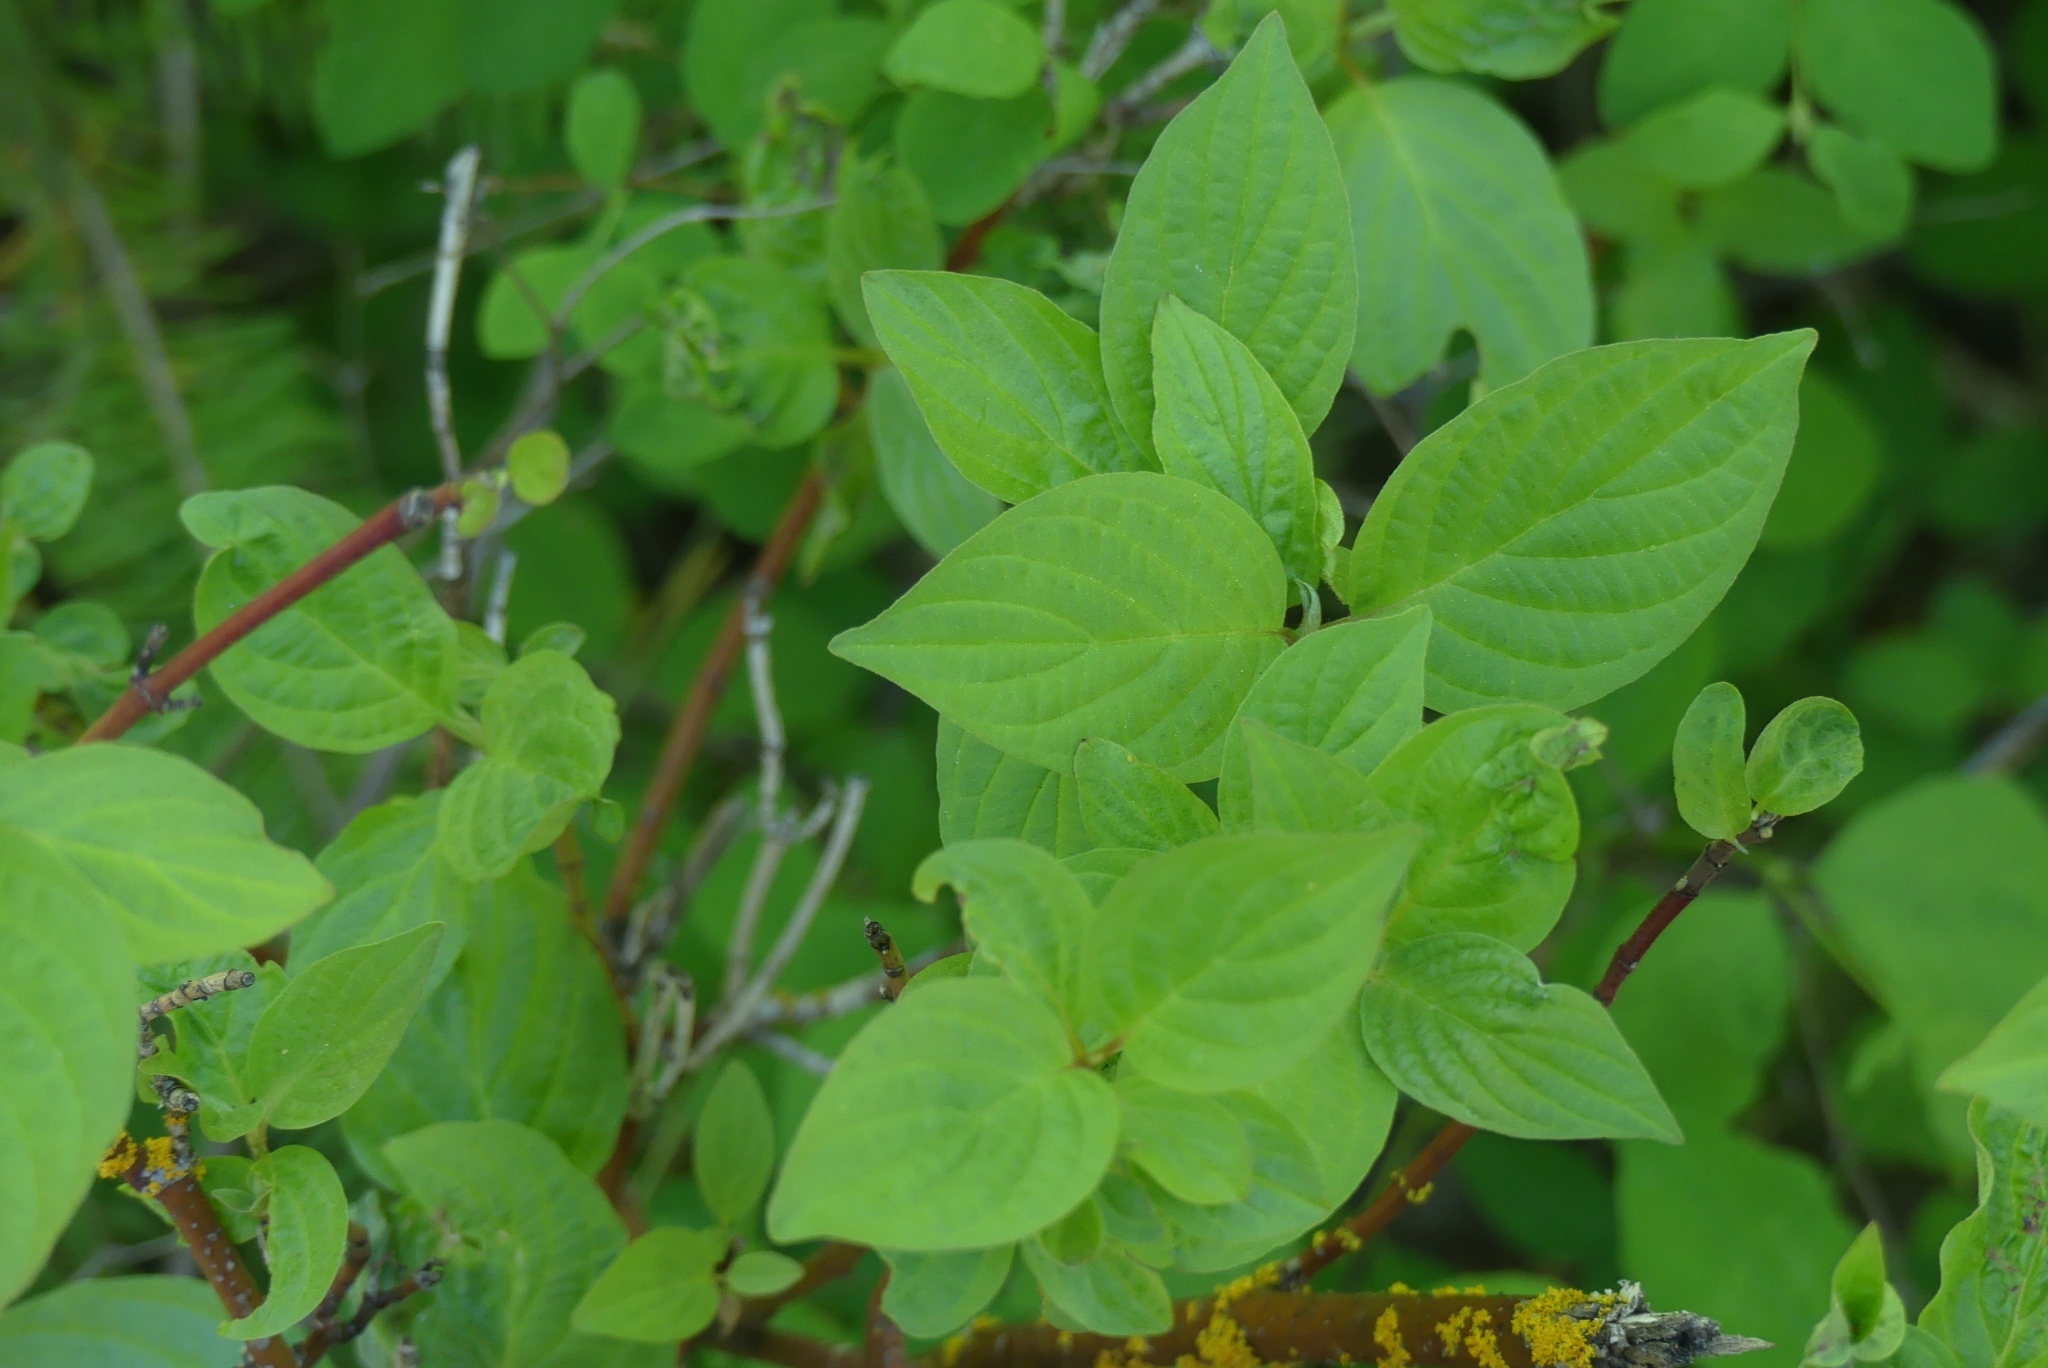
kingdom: Plantae
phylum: Tracheophyta
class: Magnoliopsida
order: Cornales
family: Cornaceae
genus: Cornus
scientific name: Cornus sericea
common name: Red-osier dogwood
